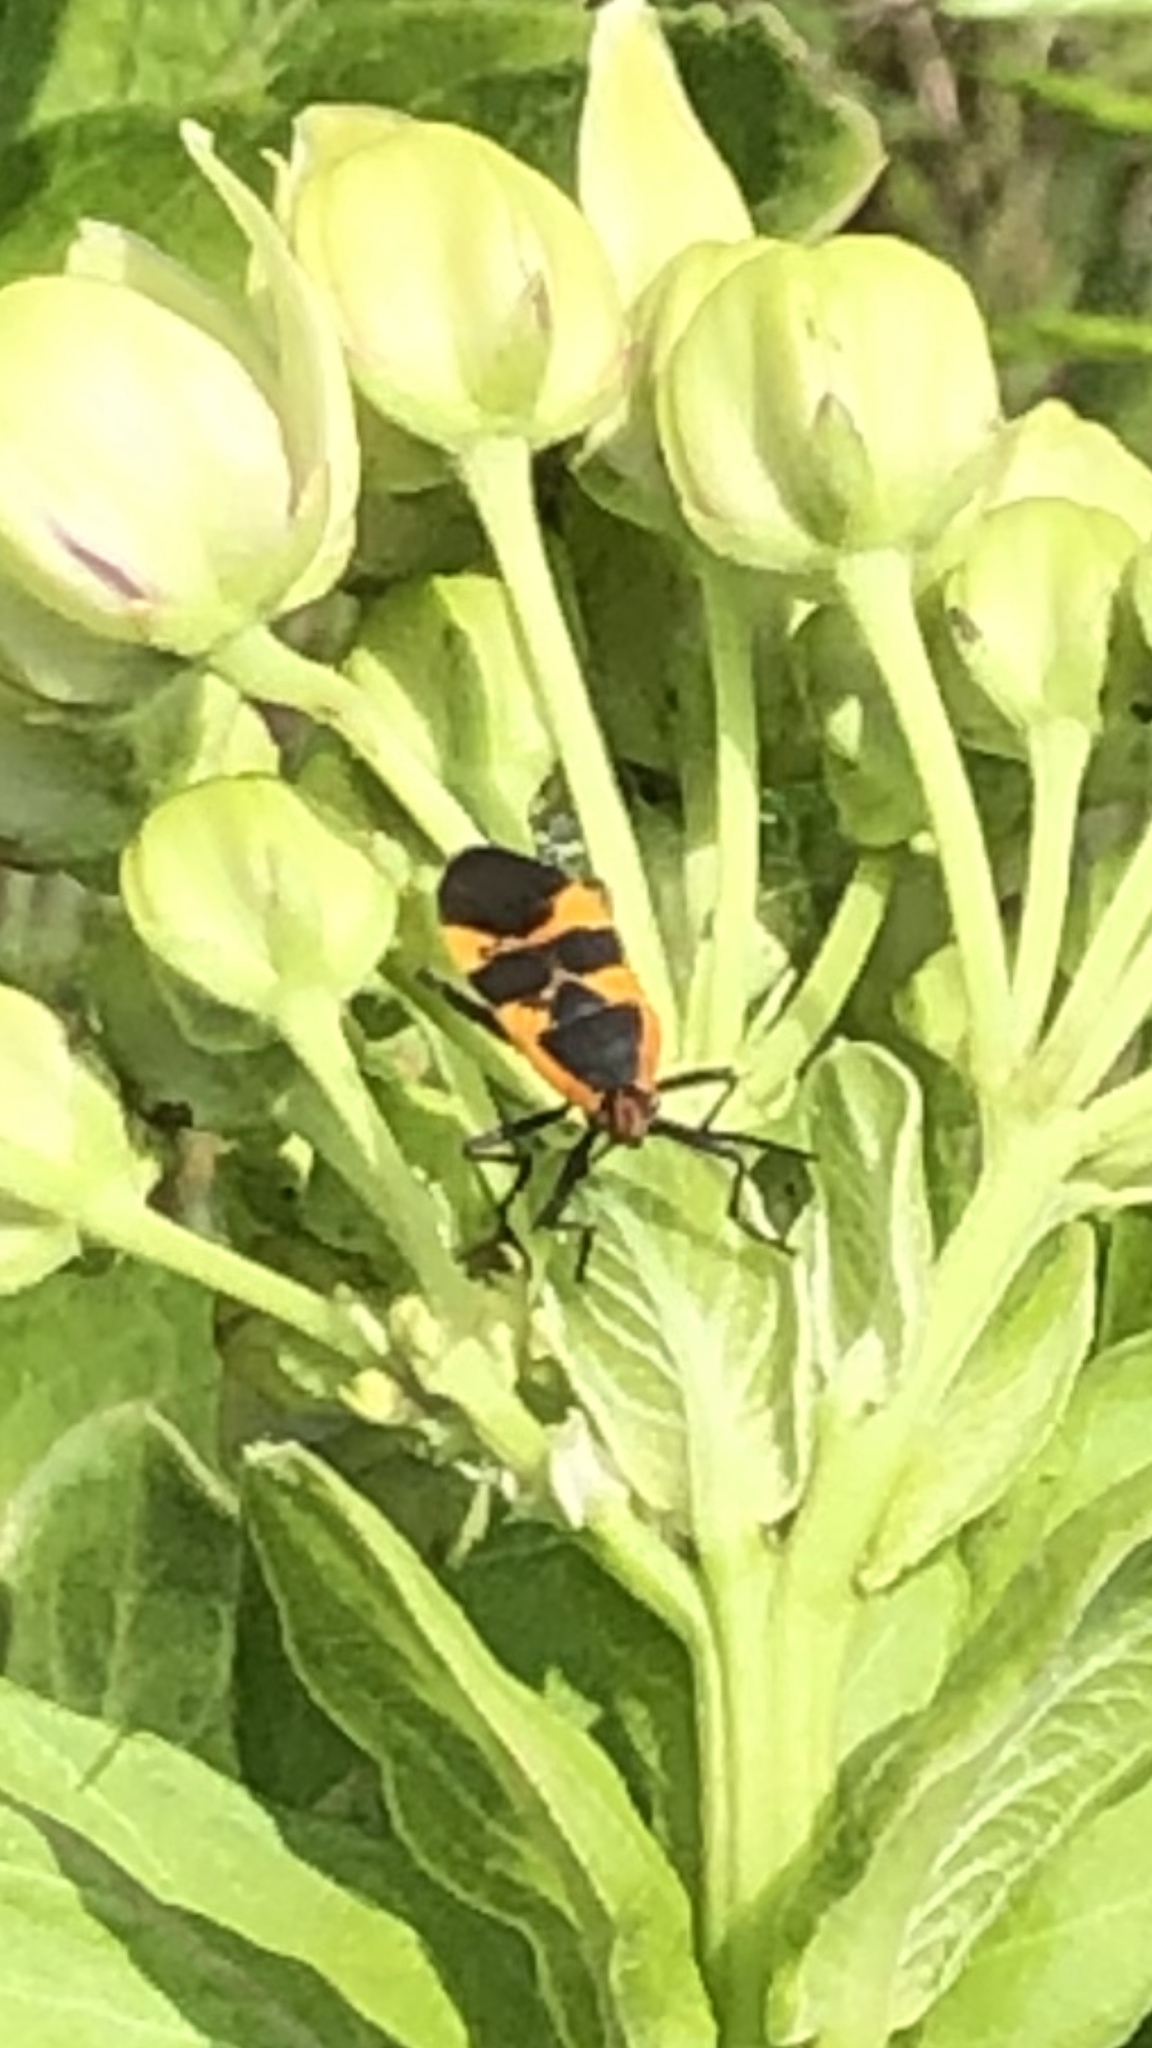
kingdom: Animalia
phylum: Arthropoda
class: Insecta
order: Hemiptera
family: Lygaeidae
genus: Oncopeltus
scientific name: Oncopeltus fasciatus
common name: Large milkweed bug
